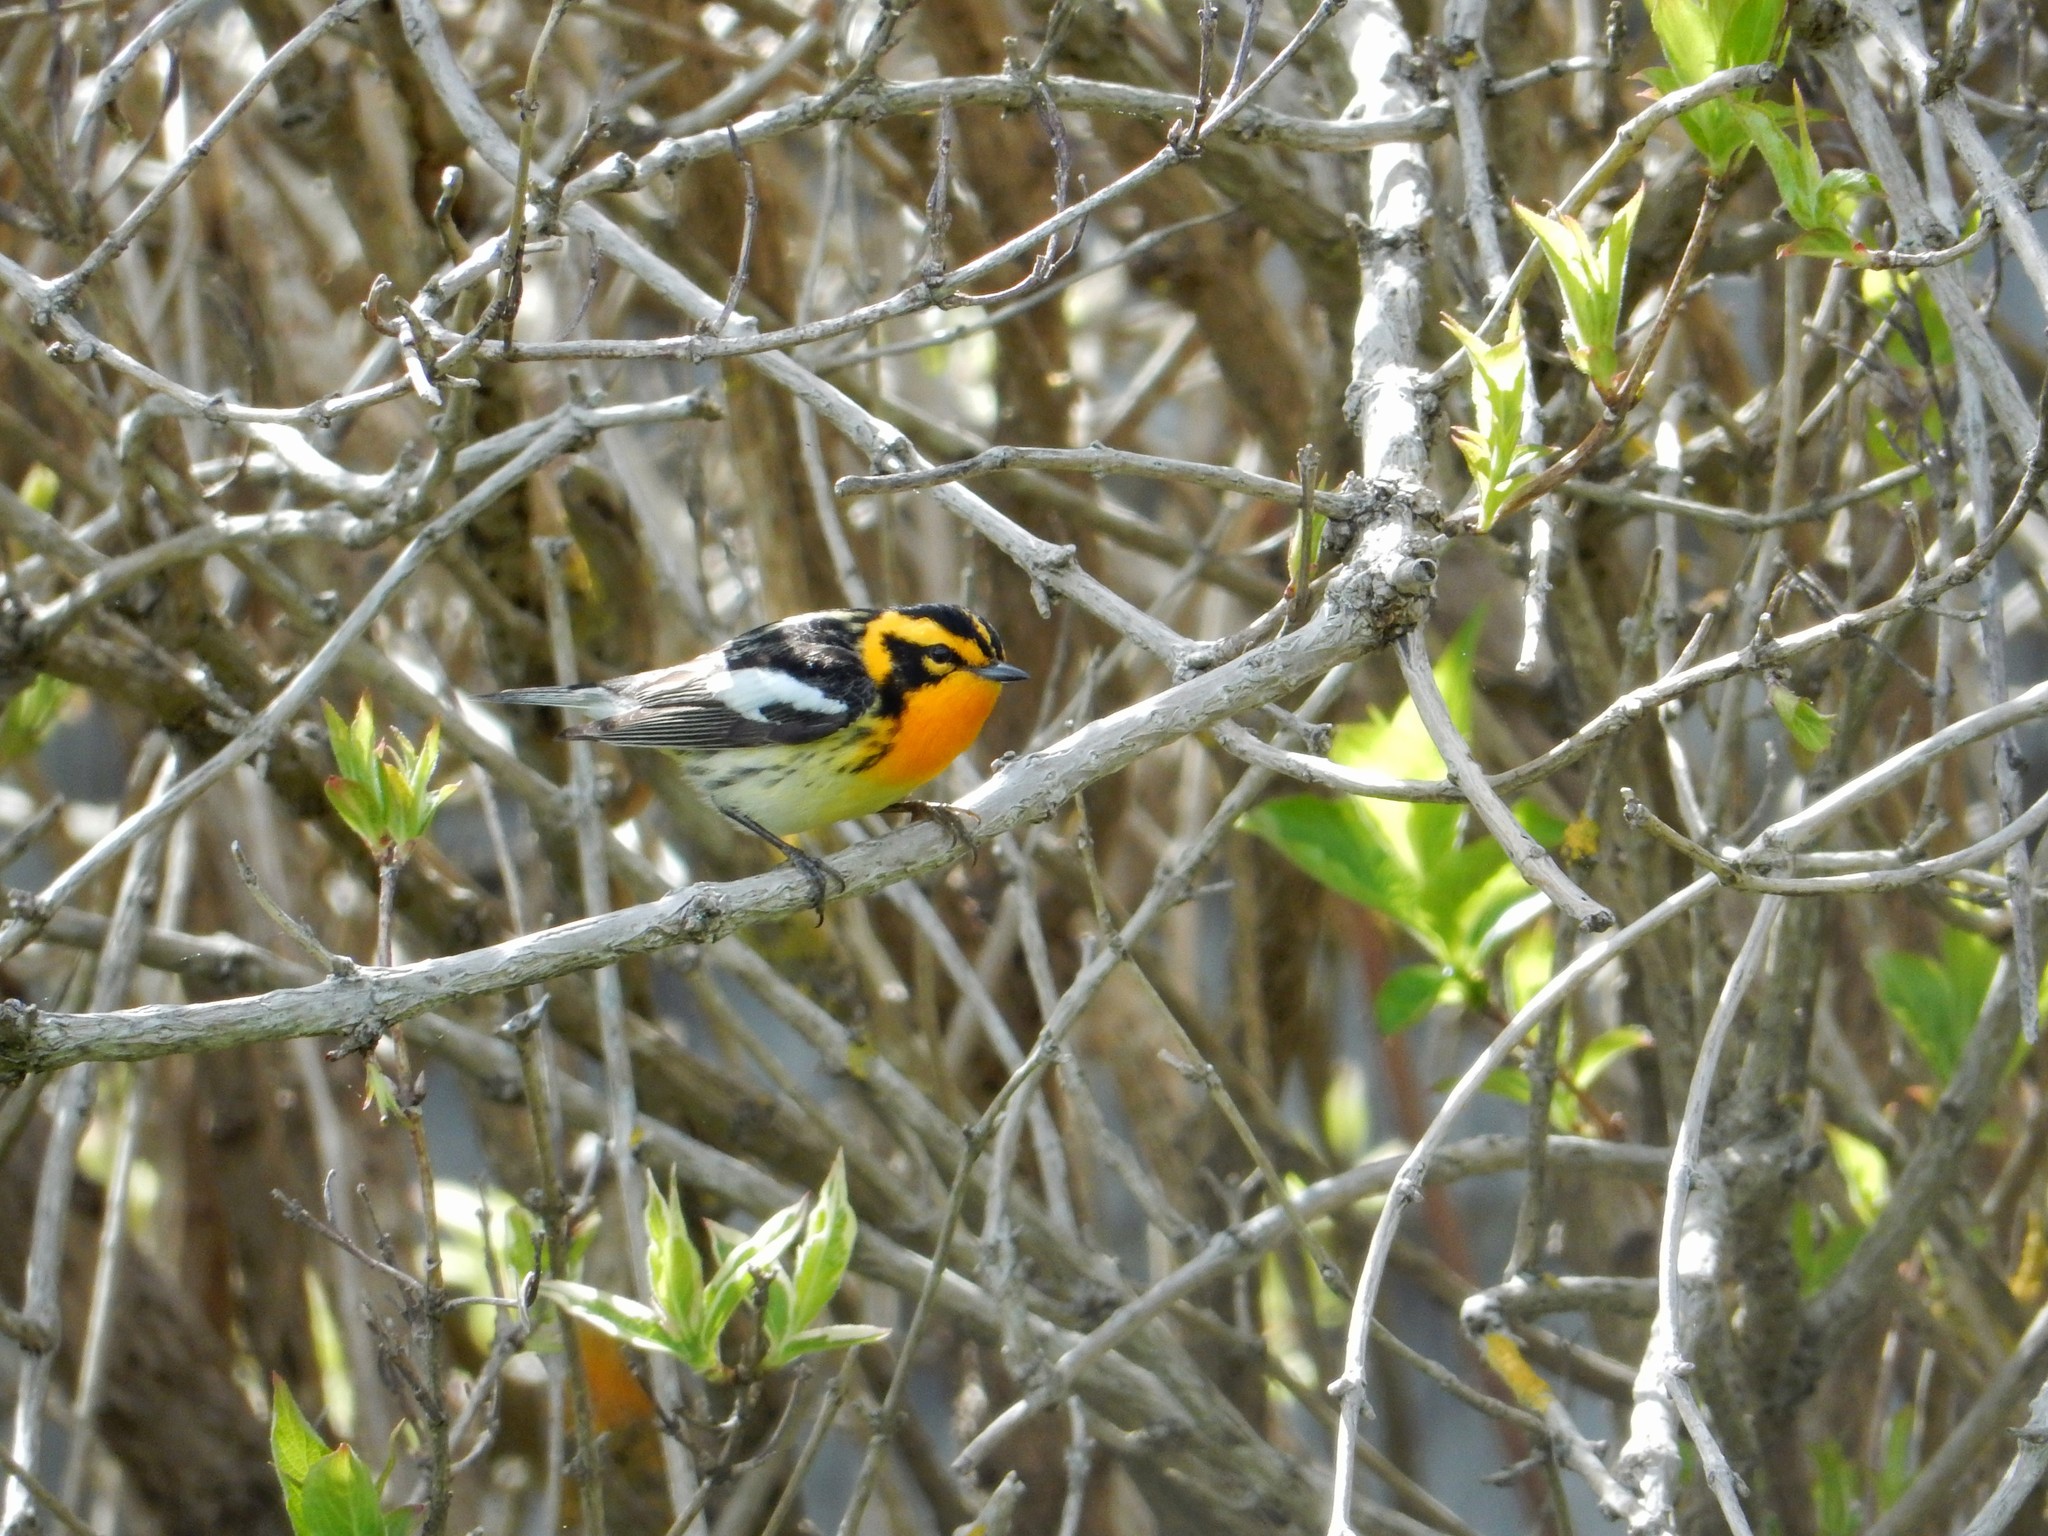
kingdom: Animalia
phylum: Chordata
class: Aves
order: Passeriformes
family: Parulidae
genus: Setophaga
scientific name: Setophaga fusca
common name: Blackburnian warbler
